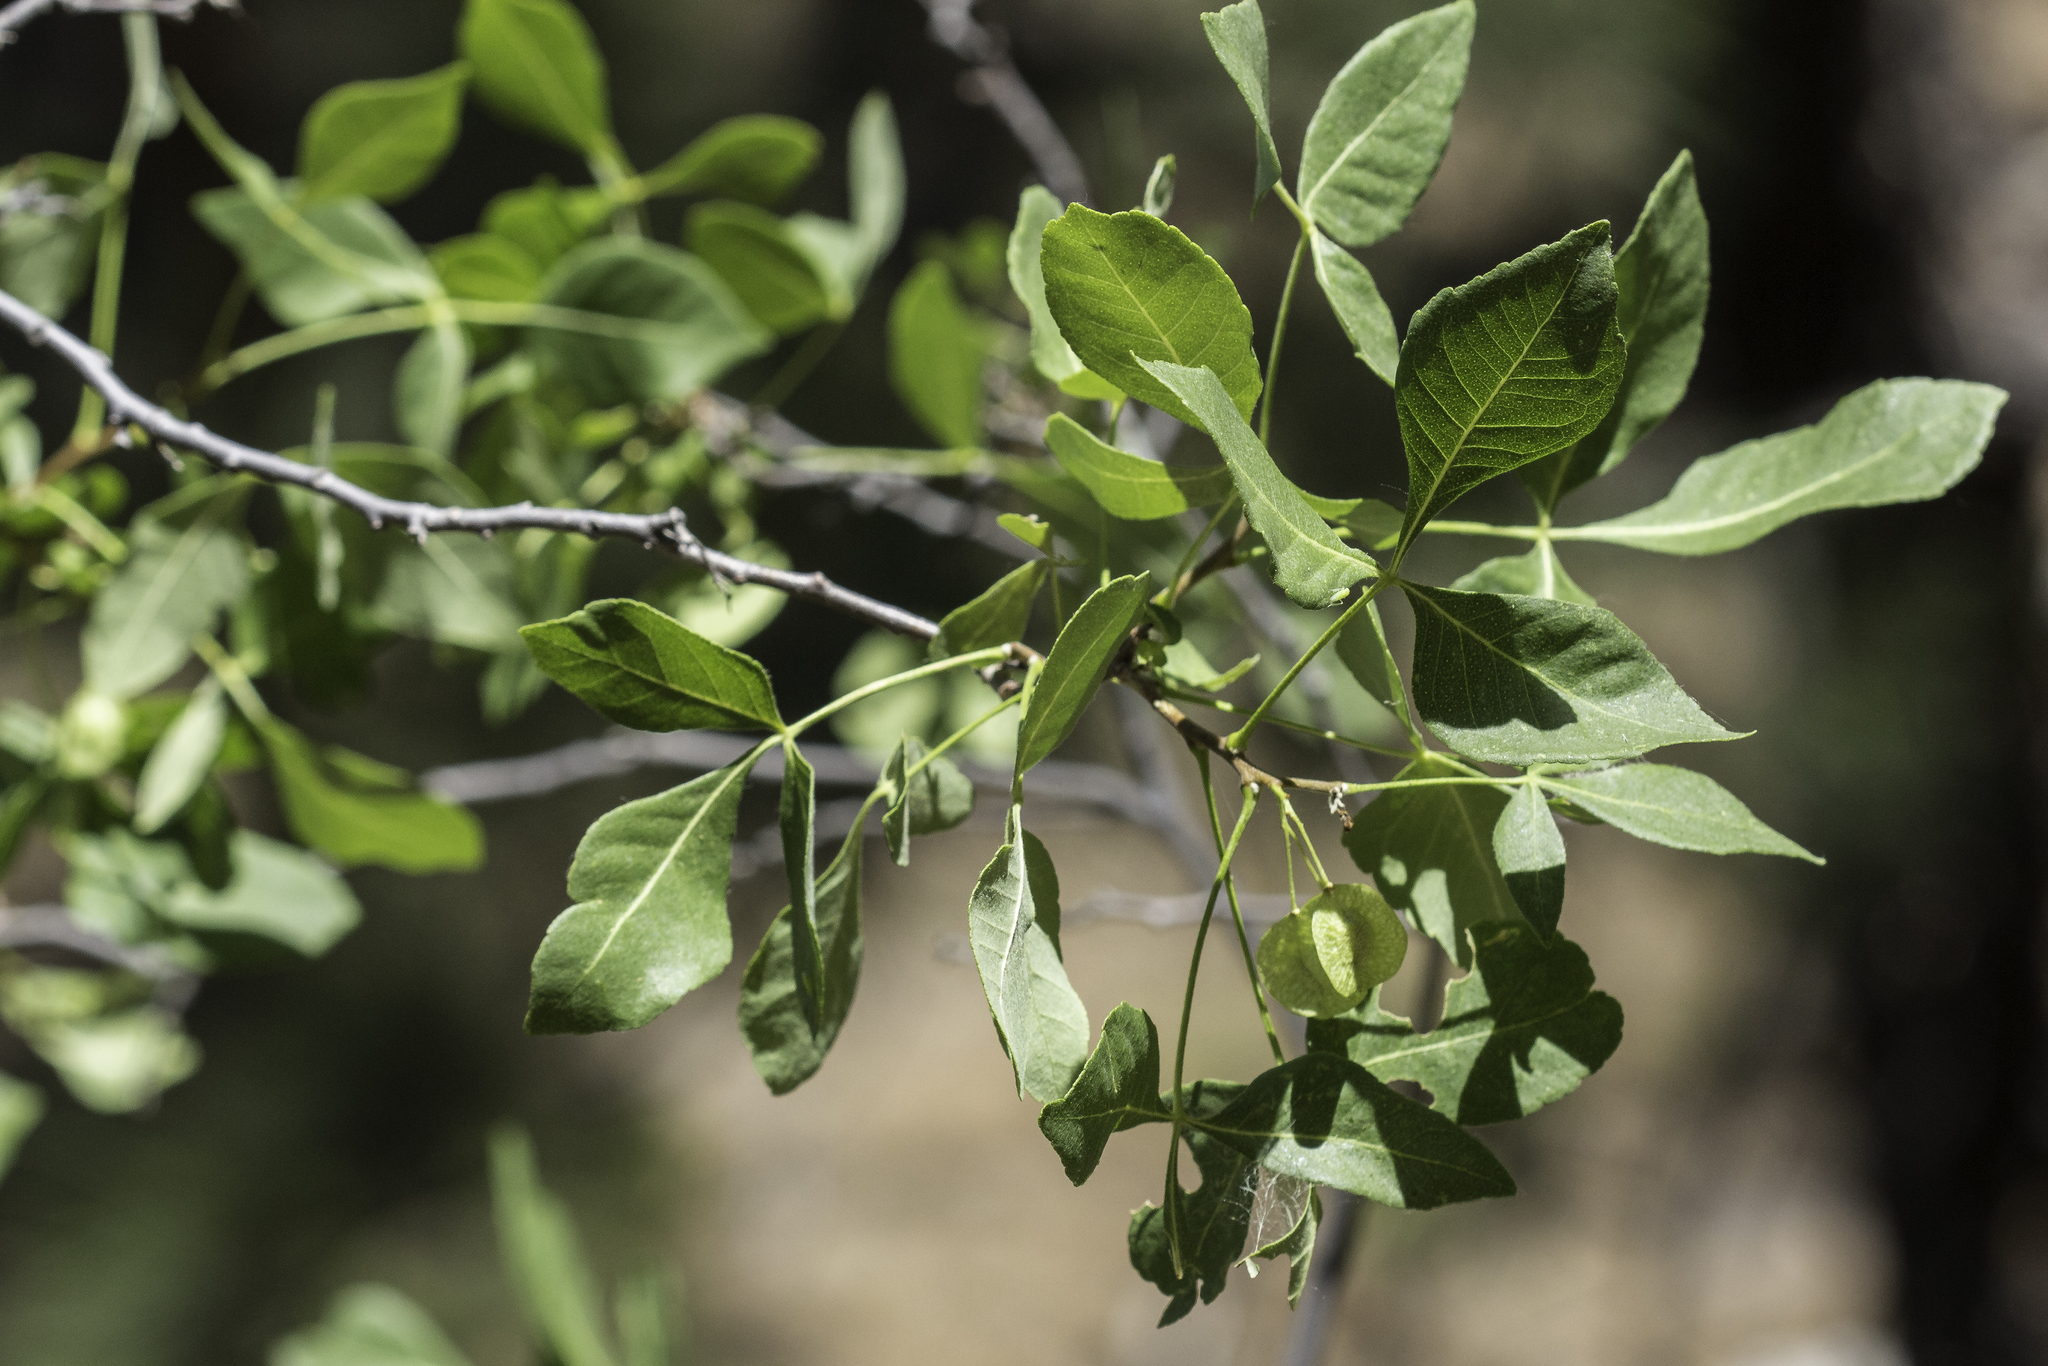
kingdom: Plantae
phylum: Tracheophyta
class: Magnoliopsida
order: Sapindales
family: Rutaceae
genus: Ptelea
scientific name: Ptelea trifoliata
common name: Common hop-tree
